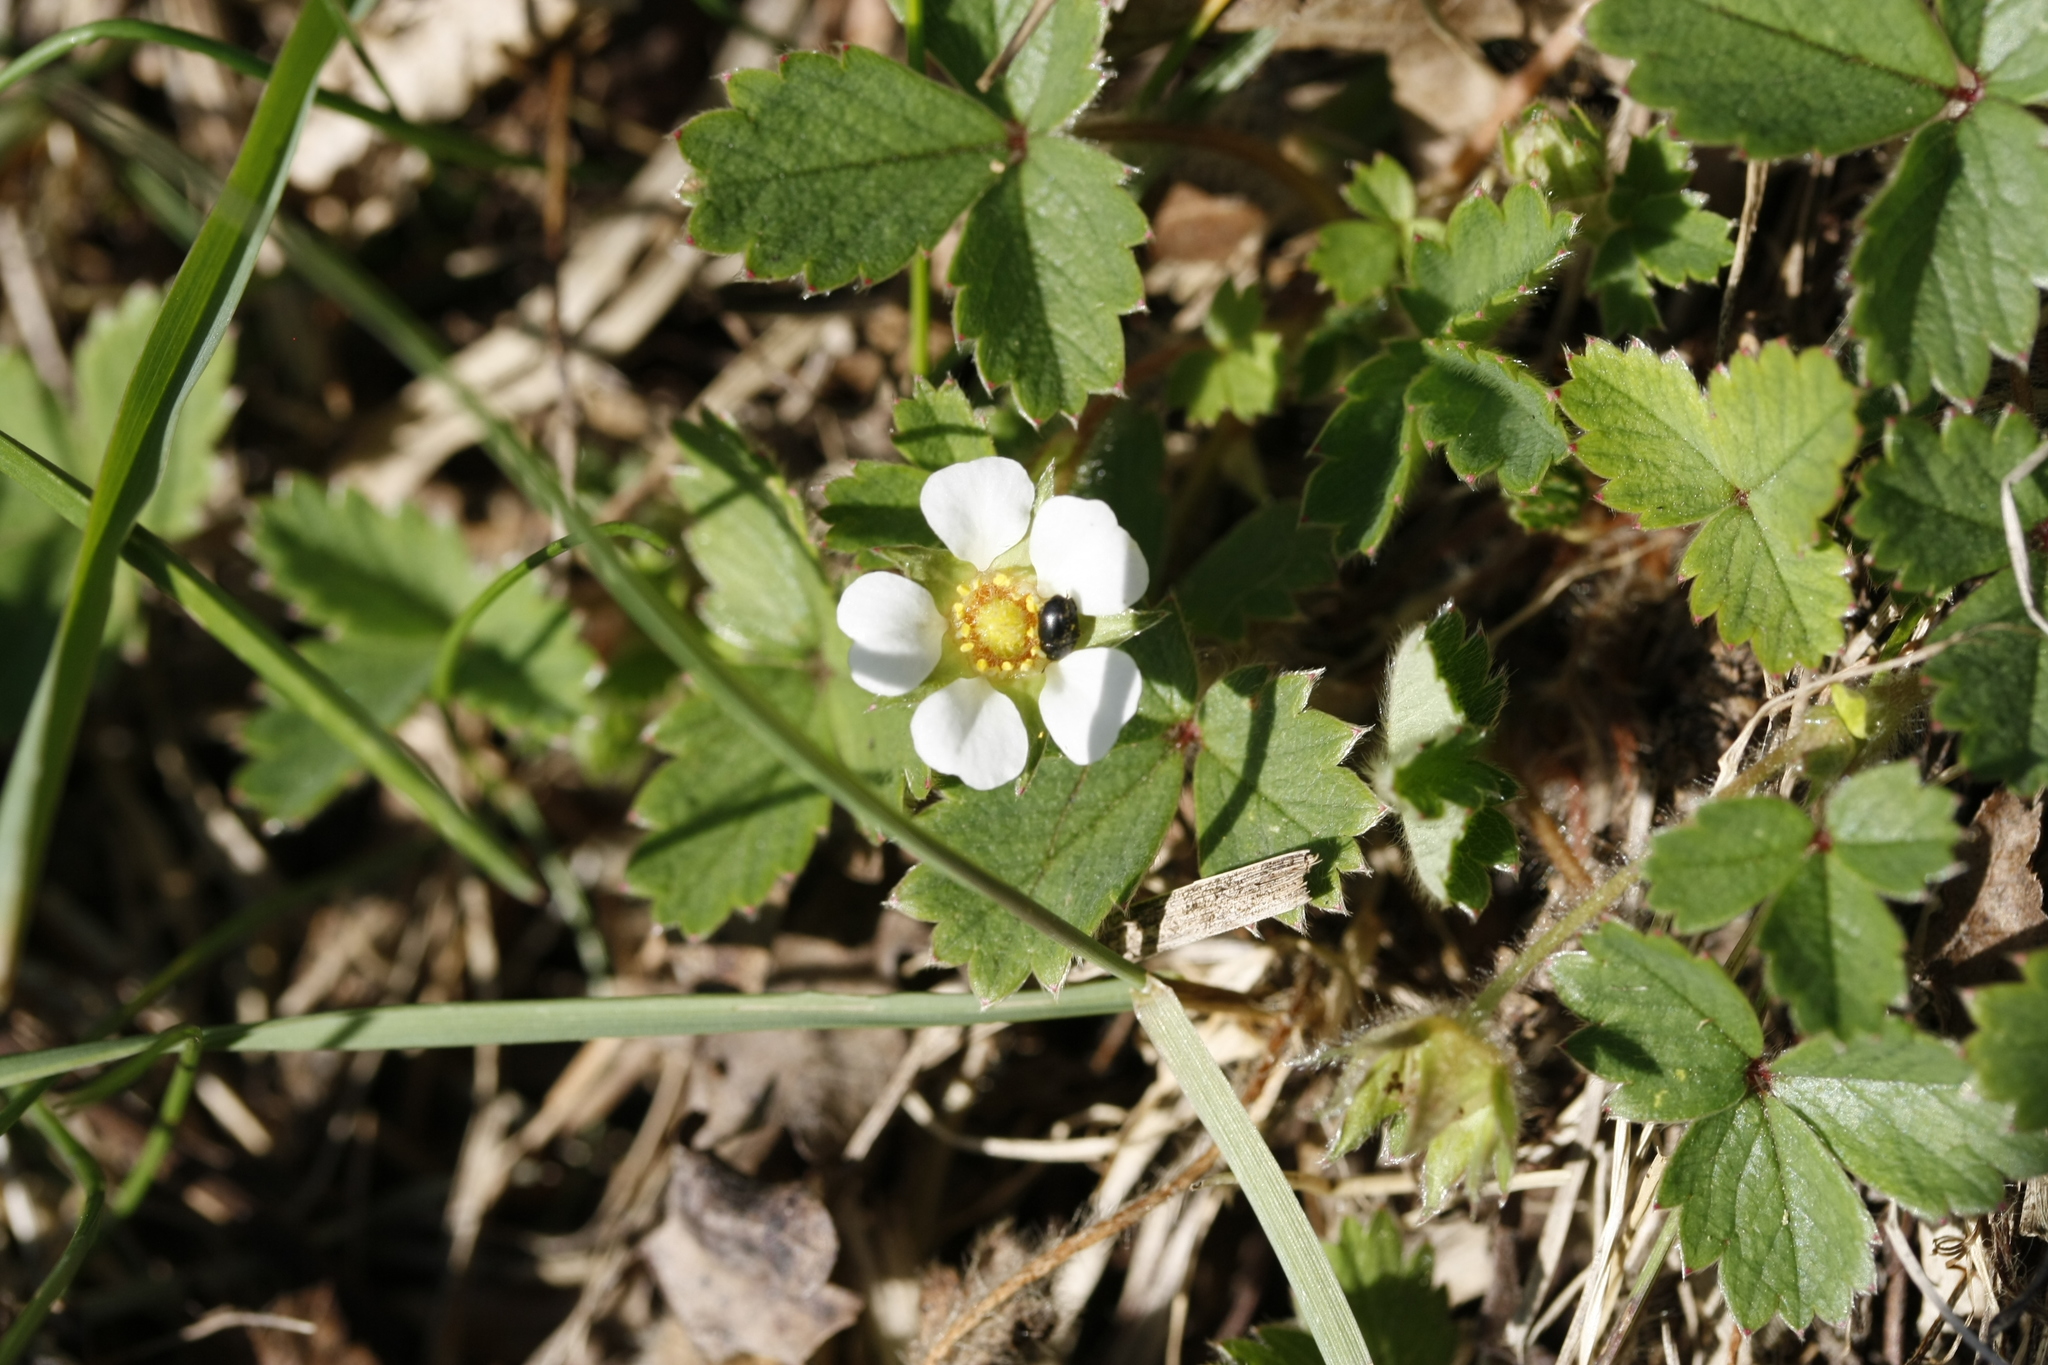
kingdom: Plantae
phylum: Tracheophyta
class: Magnoliopsida
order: Rosales
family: Rosaceae
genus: Potentilla
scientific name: Potentilla sterilis
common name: Barren strawberry
